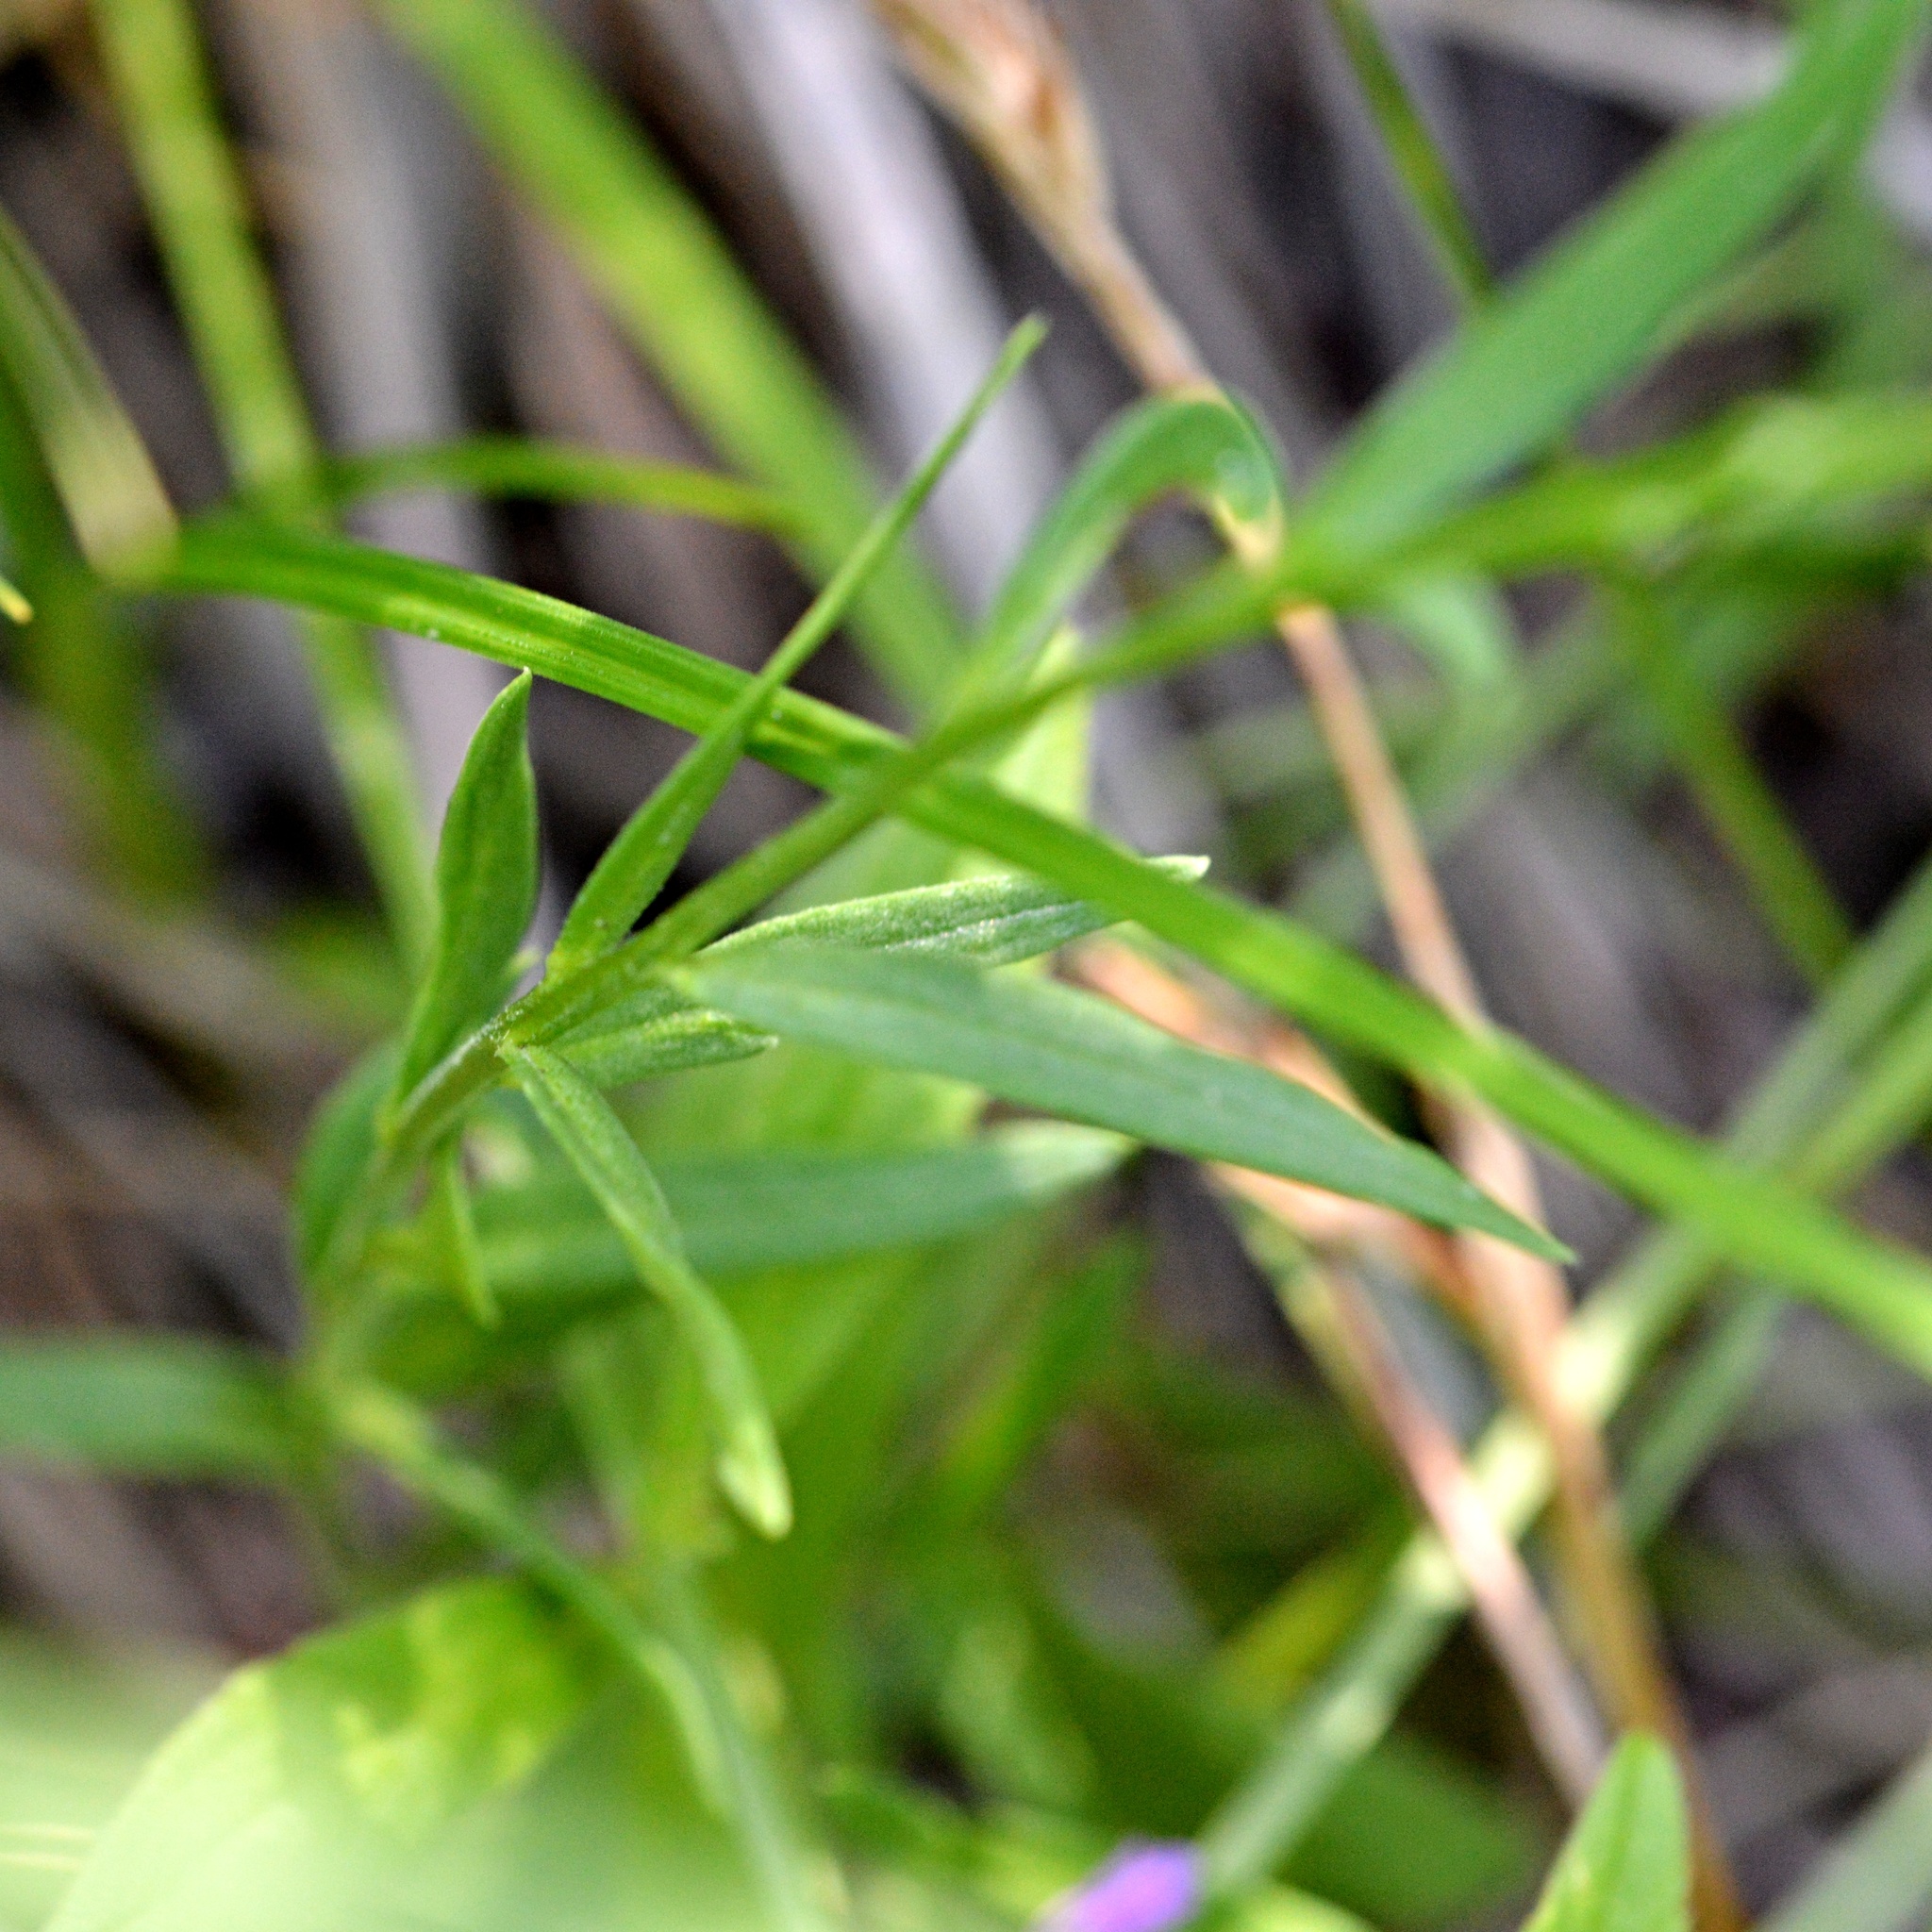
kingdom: Plantae
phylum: Tracheophyta
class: Magnoliopsida
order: Fabales
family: Polygalaceae
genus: Polygala
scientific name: Polygala comosa
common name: Tufted milkwort
